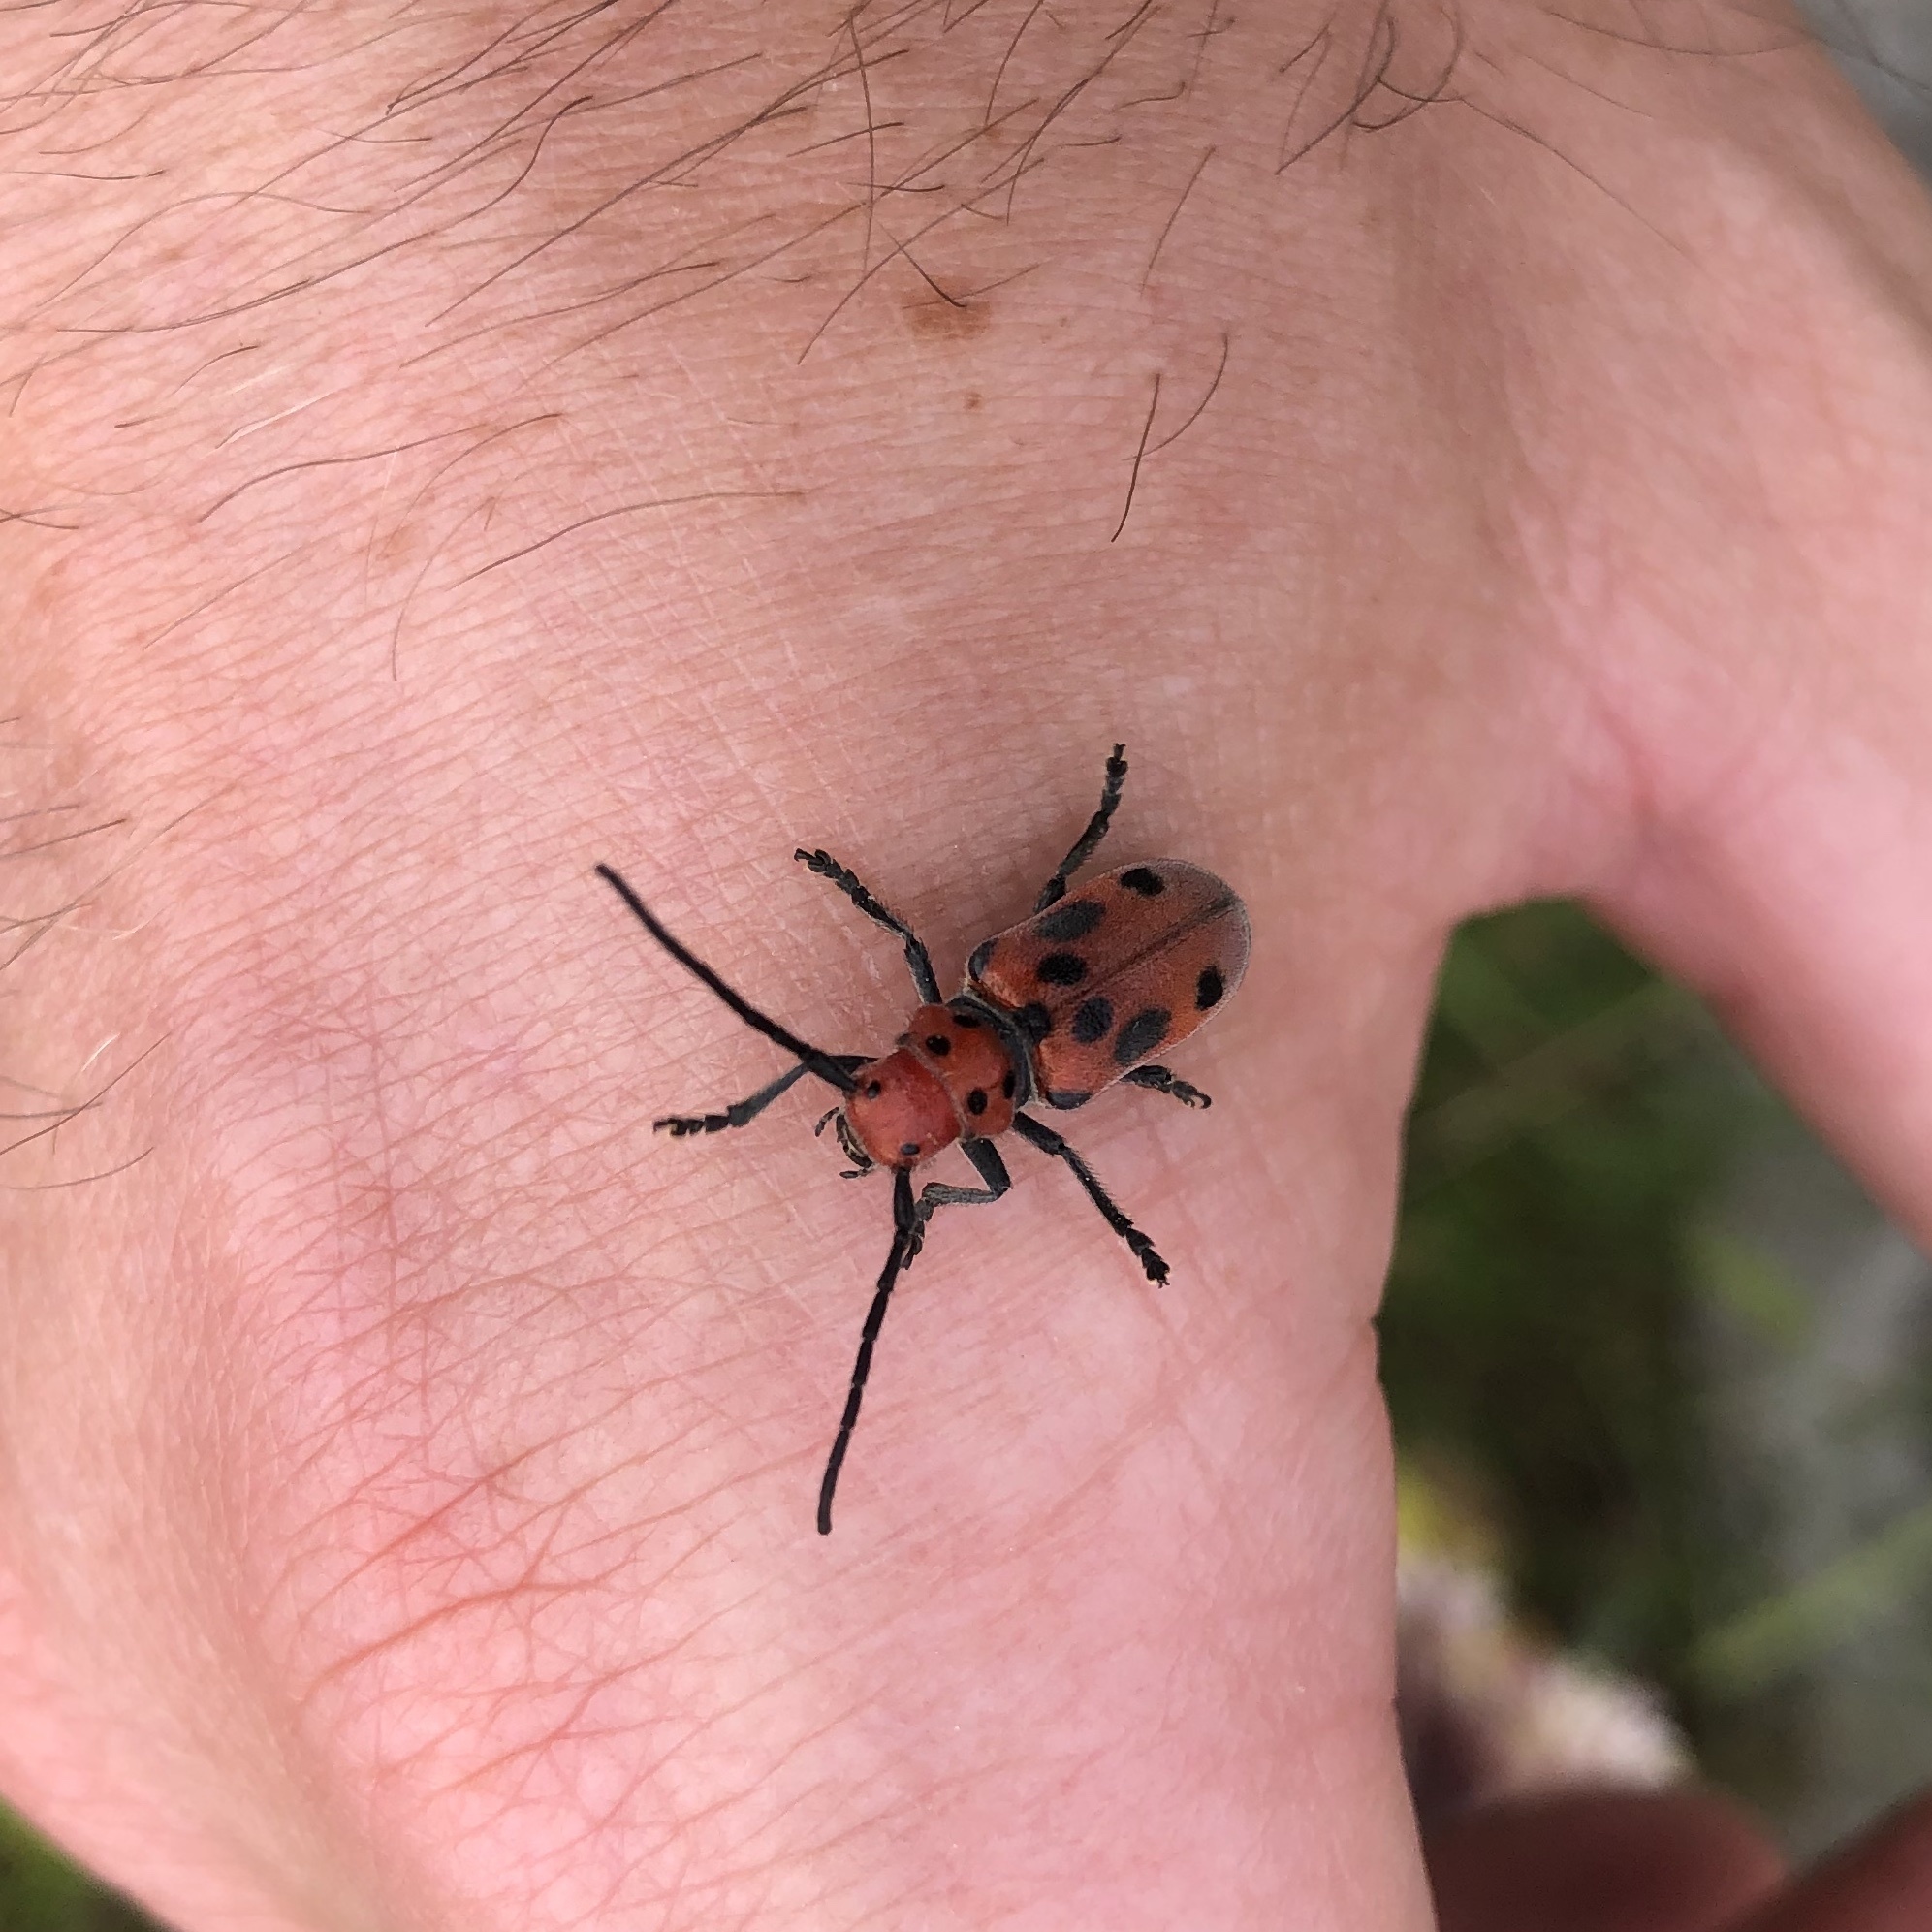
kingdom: Animalia
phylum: Arthropoda
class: Insecta
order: Coleoptera
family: Cerambycidae
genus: Tetraopes
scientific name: Tetraopes tetrophthalmus
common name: Red milkweed beetle
